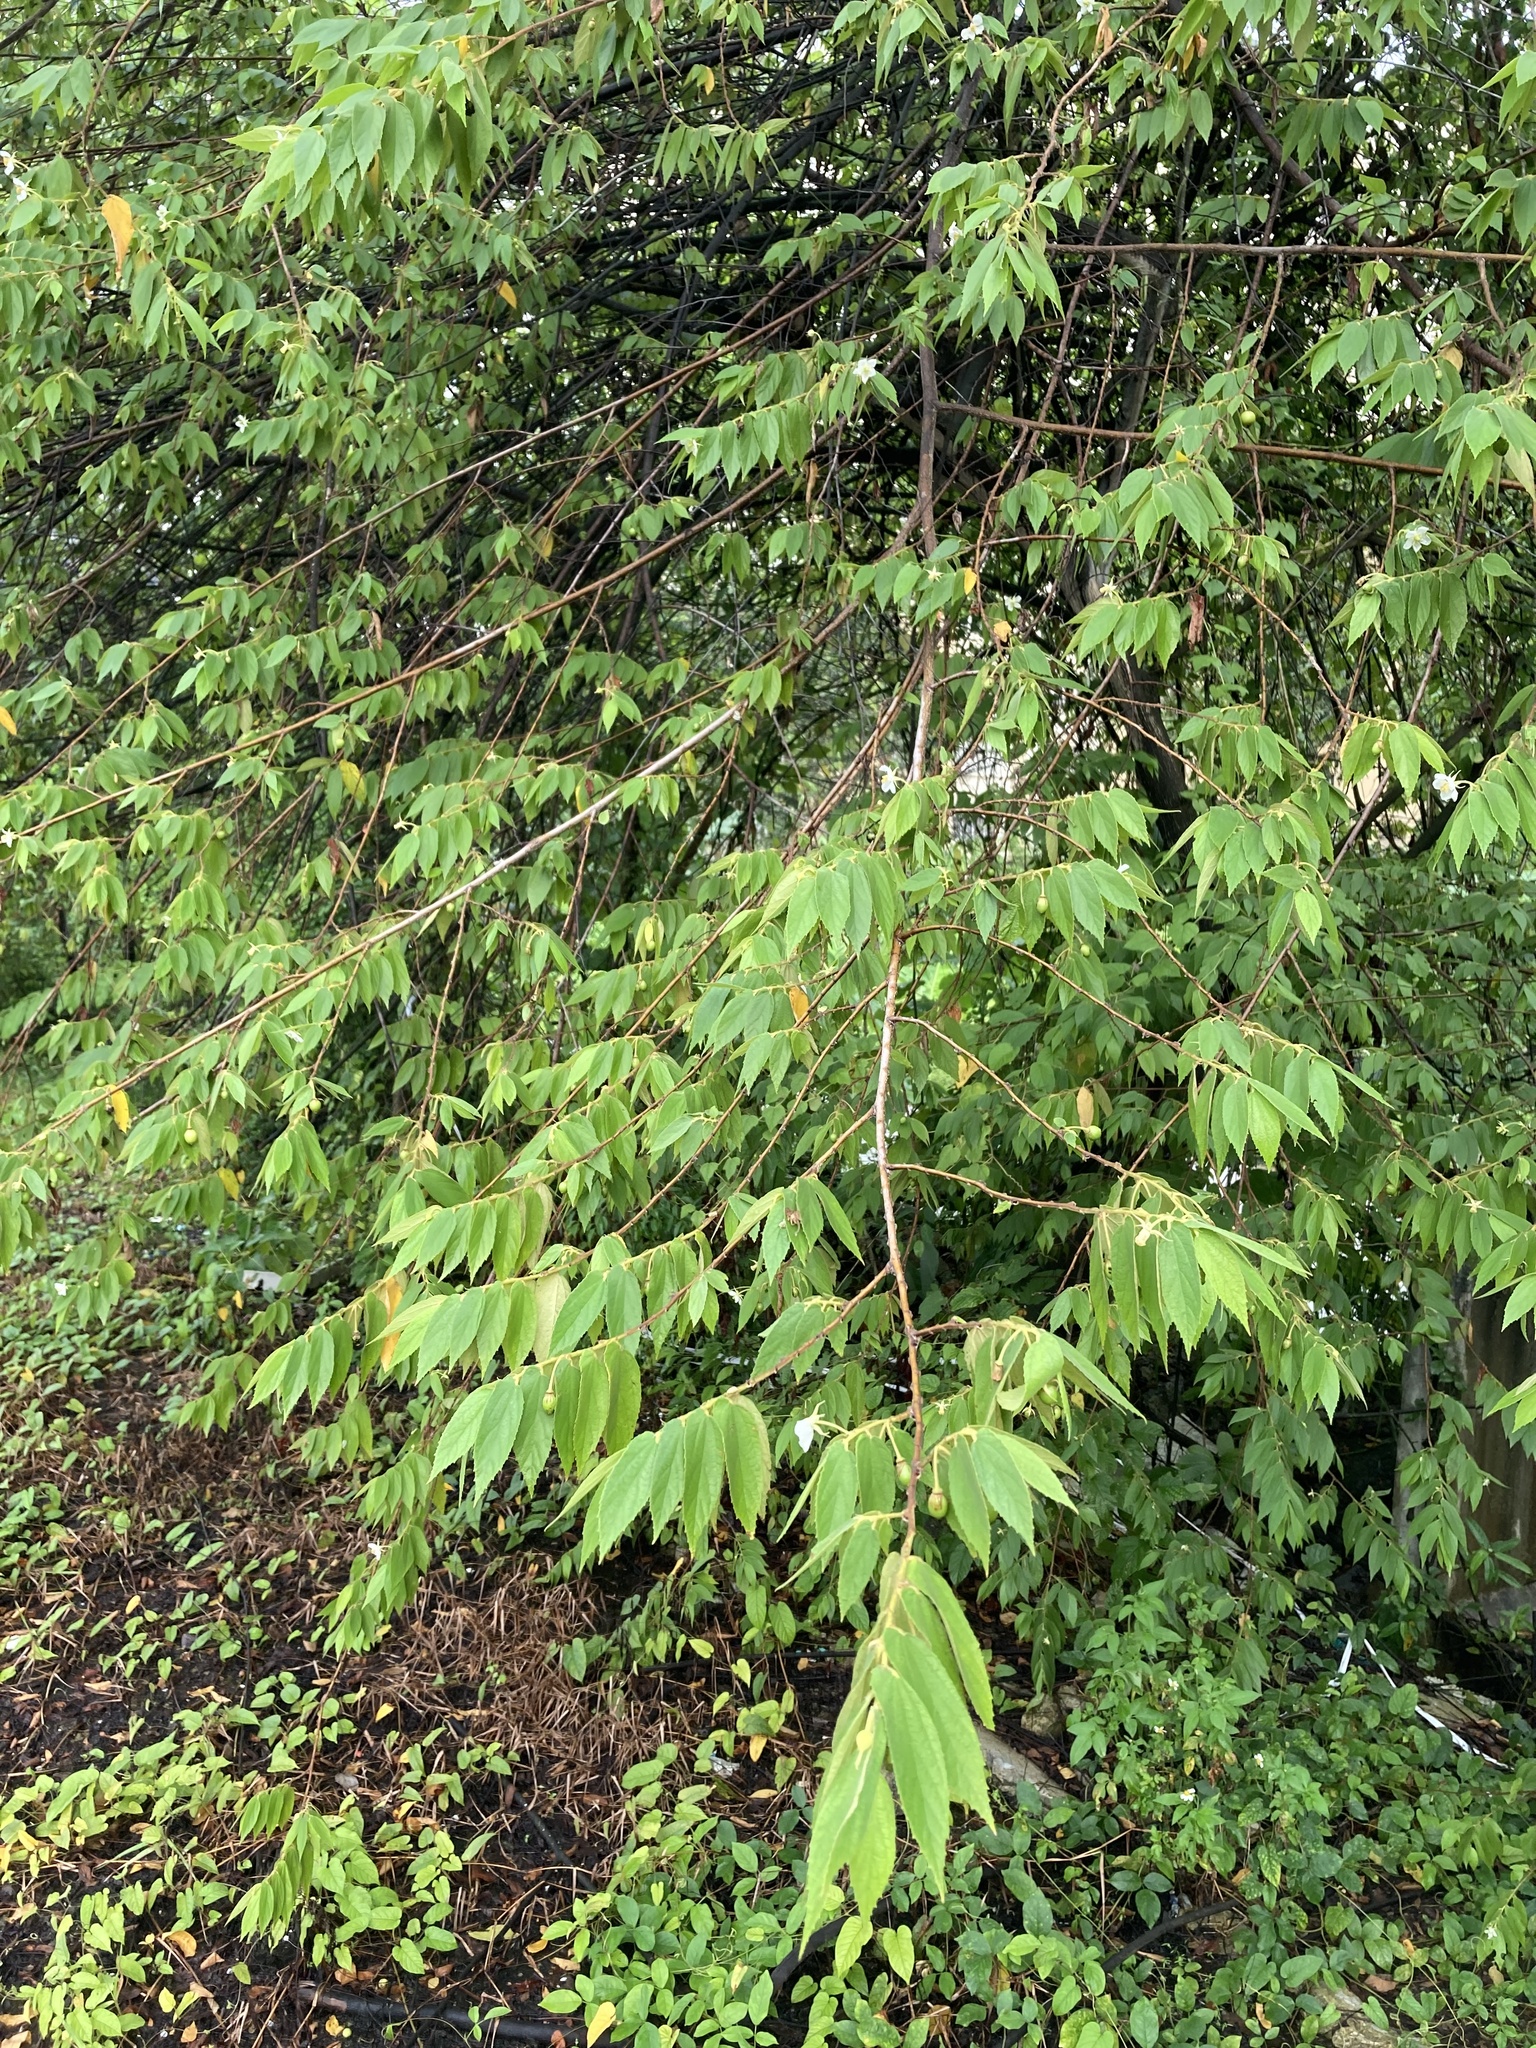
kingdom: Plantae
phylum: Tracheophyta
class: Magnoliopsida
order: Malvales
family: Muntingiaceae
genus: Muntingia
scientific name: Muntingia calabura
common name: Strawberrytree
